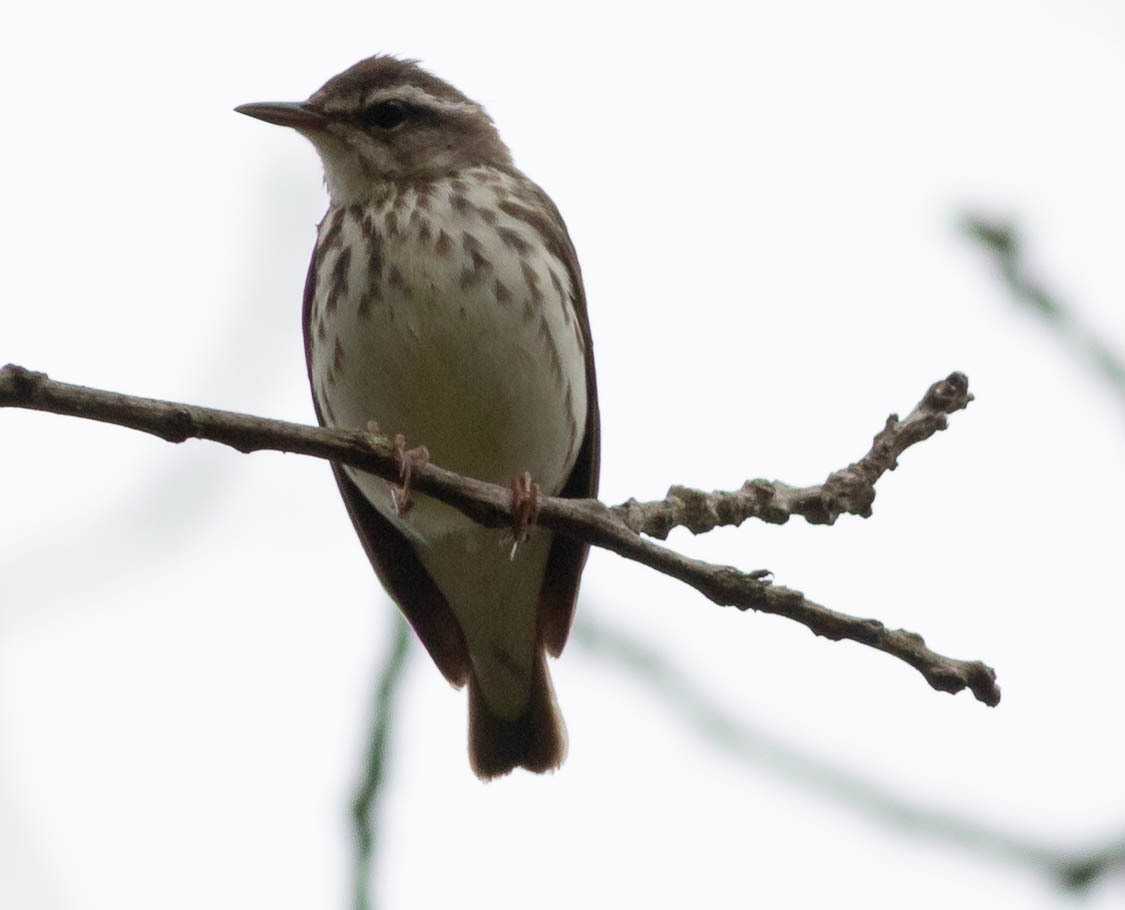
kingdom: Animalia
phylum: Chordata
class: Aves
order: Passeriformes
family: Parulidae
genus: Parkesia
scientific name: Parkesia motacilla
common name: Louisiana waterthrush
